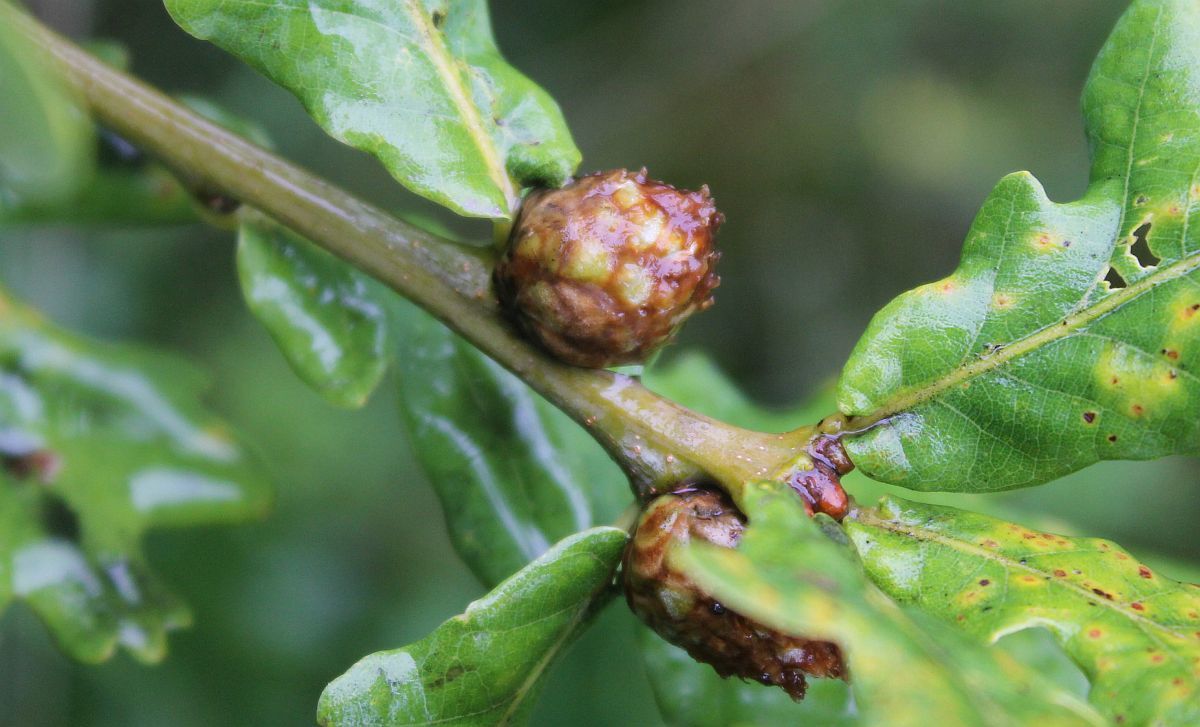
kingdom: Animalia
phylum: Arthropoda
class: Insecta
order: Hymenoptera
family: Cynipidae
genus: Andricus
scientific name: Andricus foecundatrix
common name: Artichoke gall
